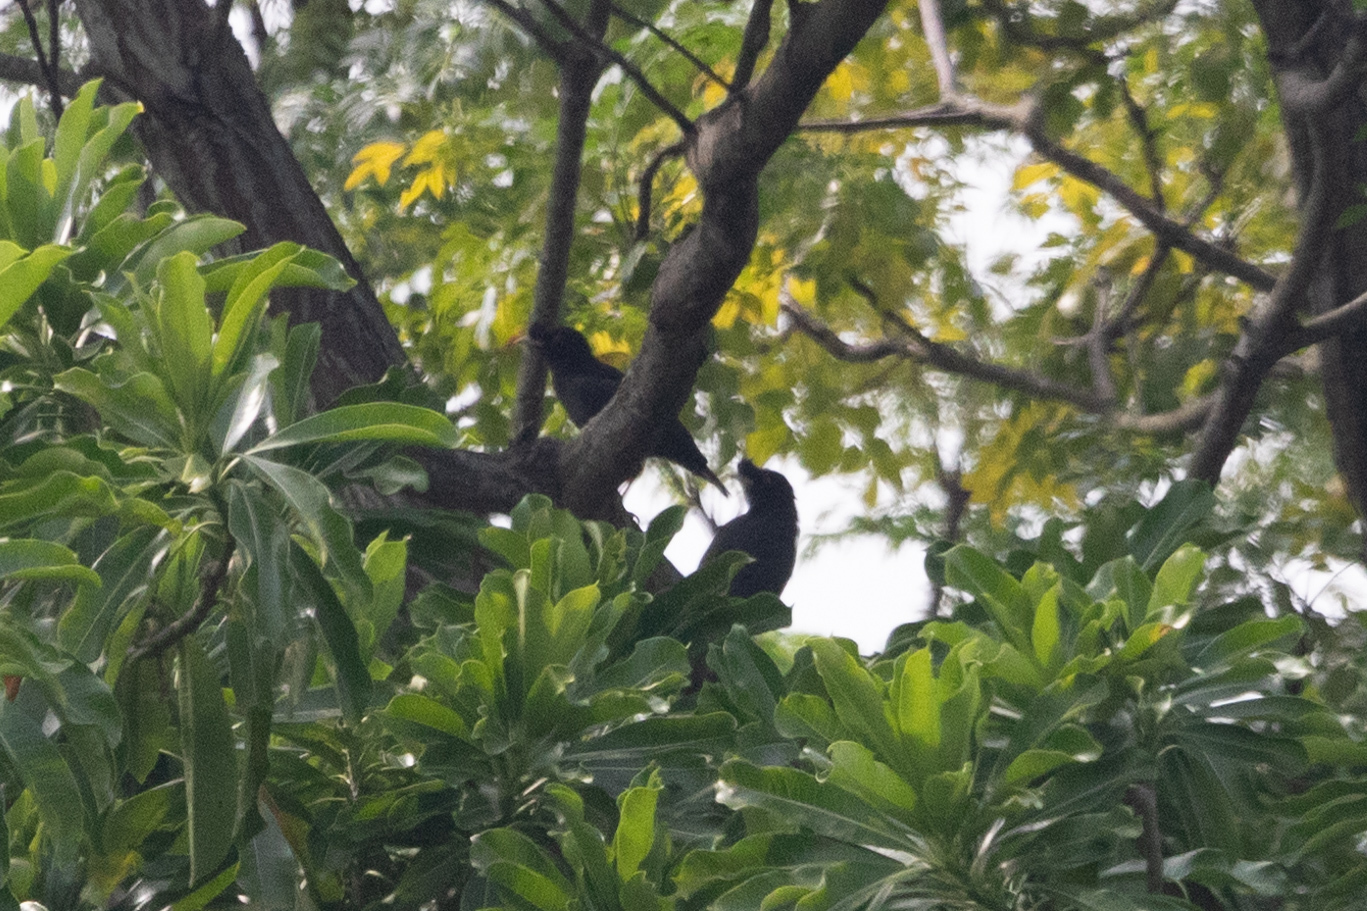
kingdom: Animalia
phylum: Chordata
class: Aves
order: Passeriformes
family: Sturnidae
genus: Acridotheres
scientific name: Acridotheres cristatellus
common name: Crested myna
